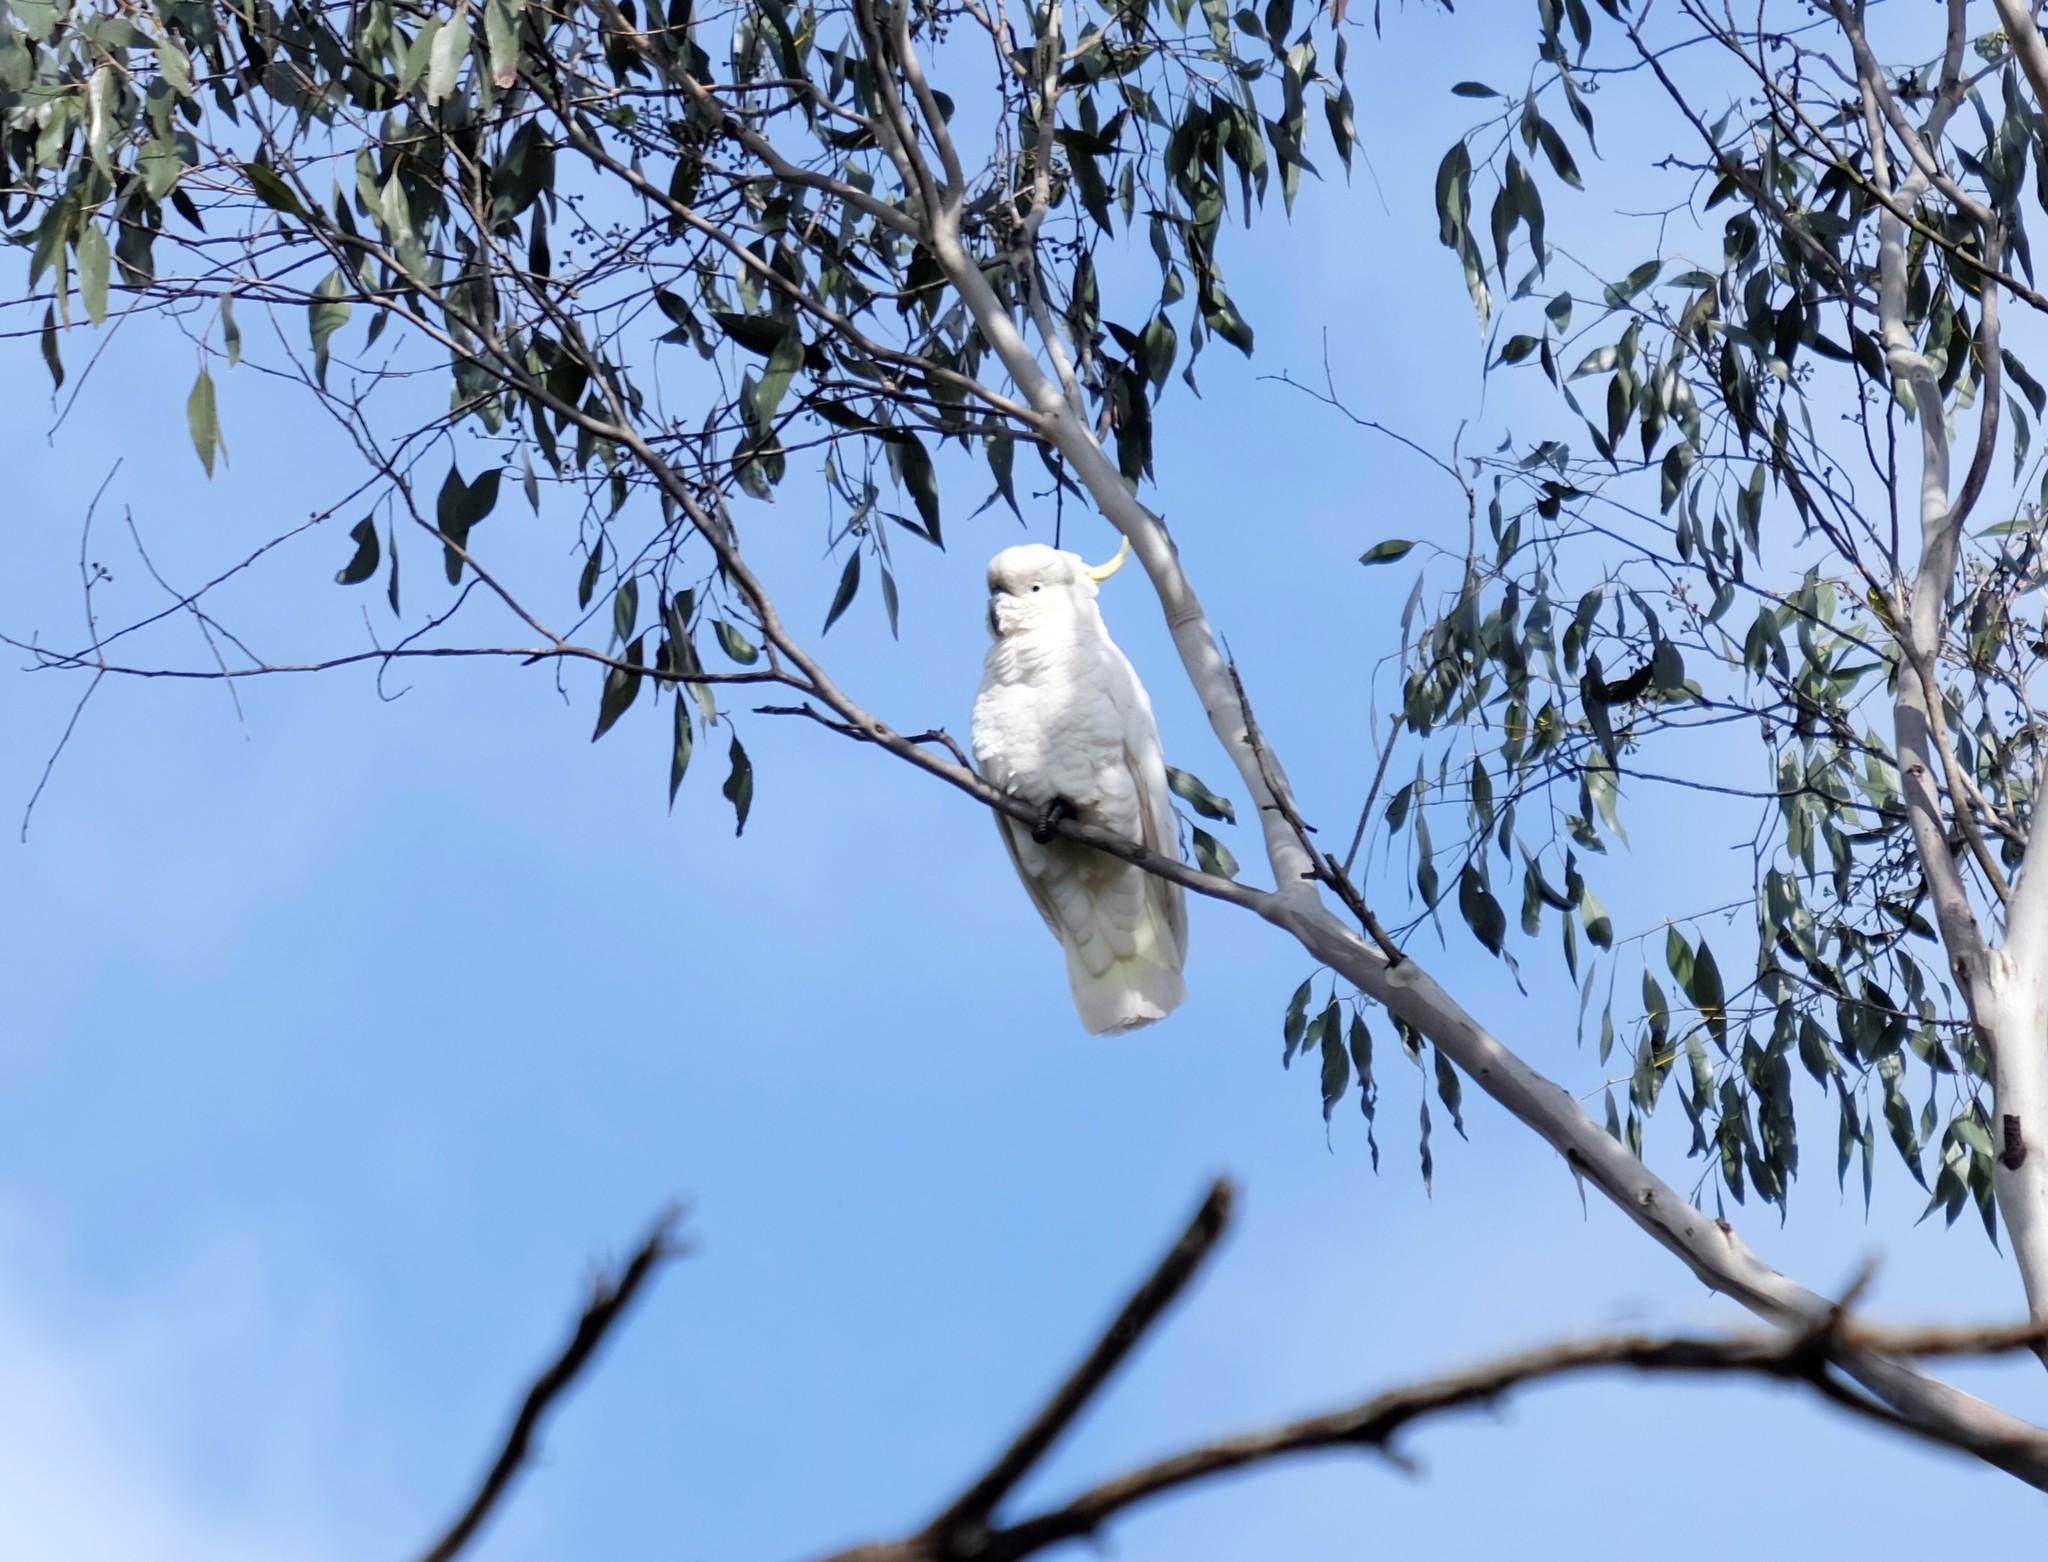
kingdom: Animalia
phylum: Chordata
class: Aves
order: Psittaciformes
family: Psittacidae
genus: Cacatua
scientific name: Cacatua galerita
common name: Sulphur-crested cockatoo
